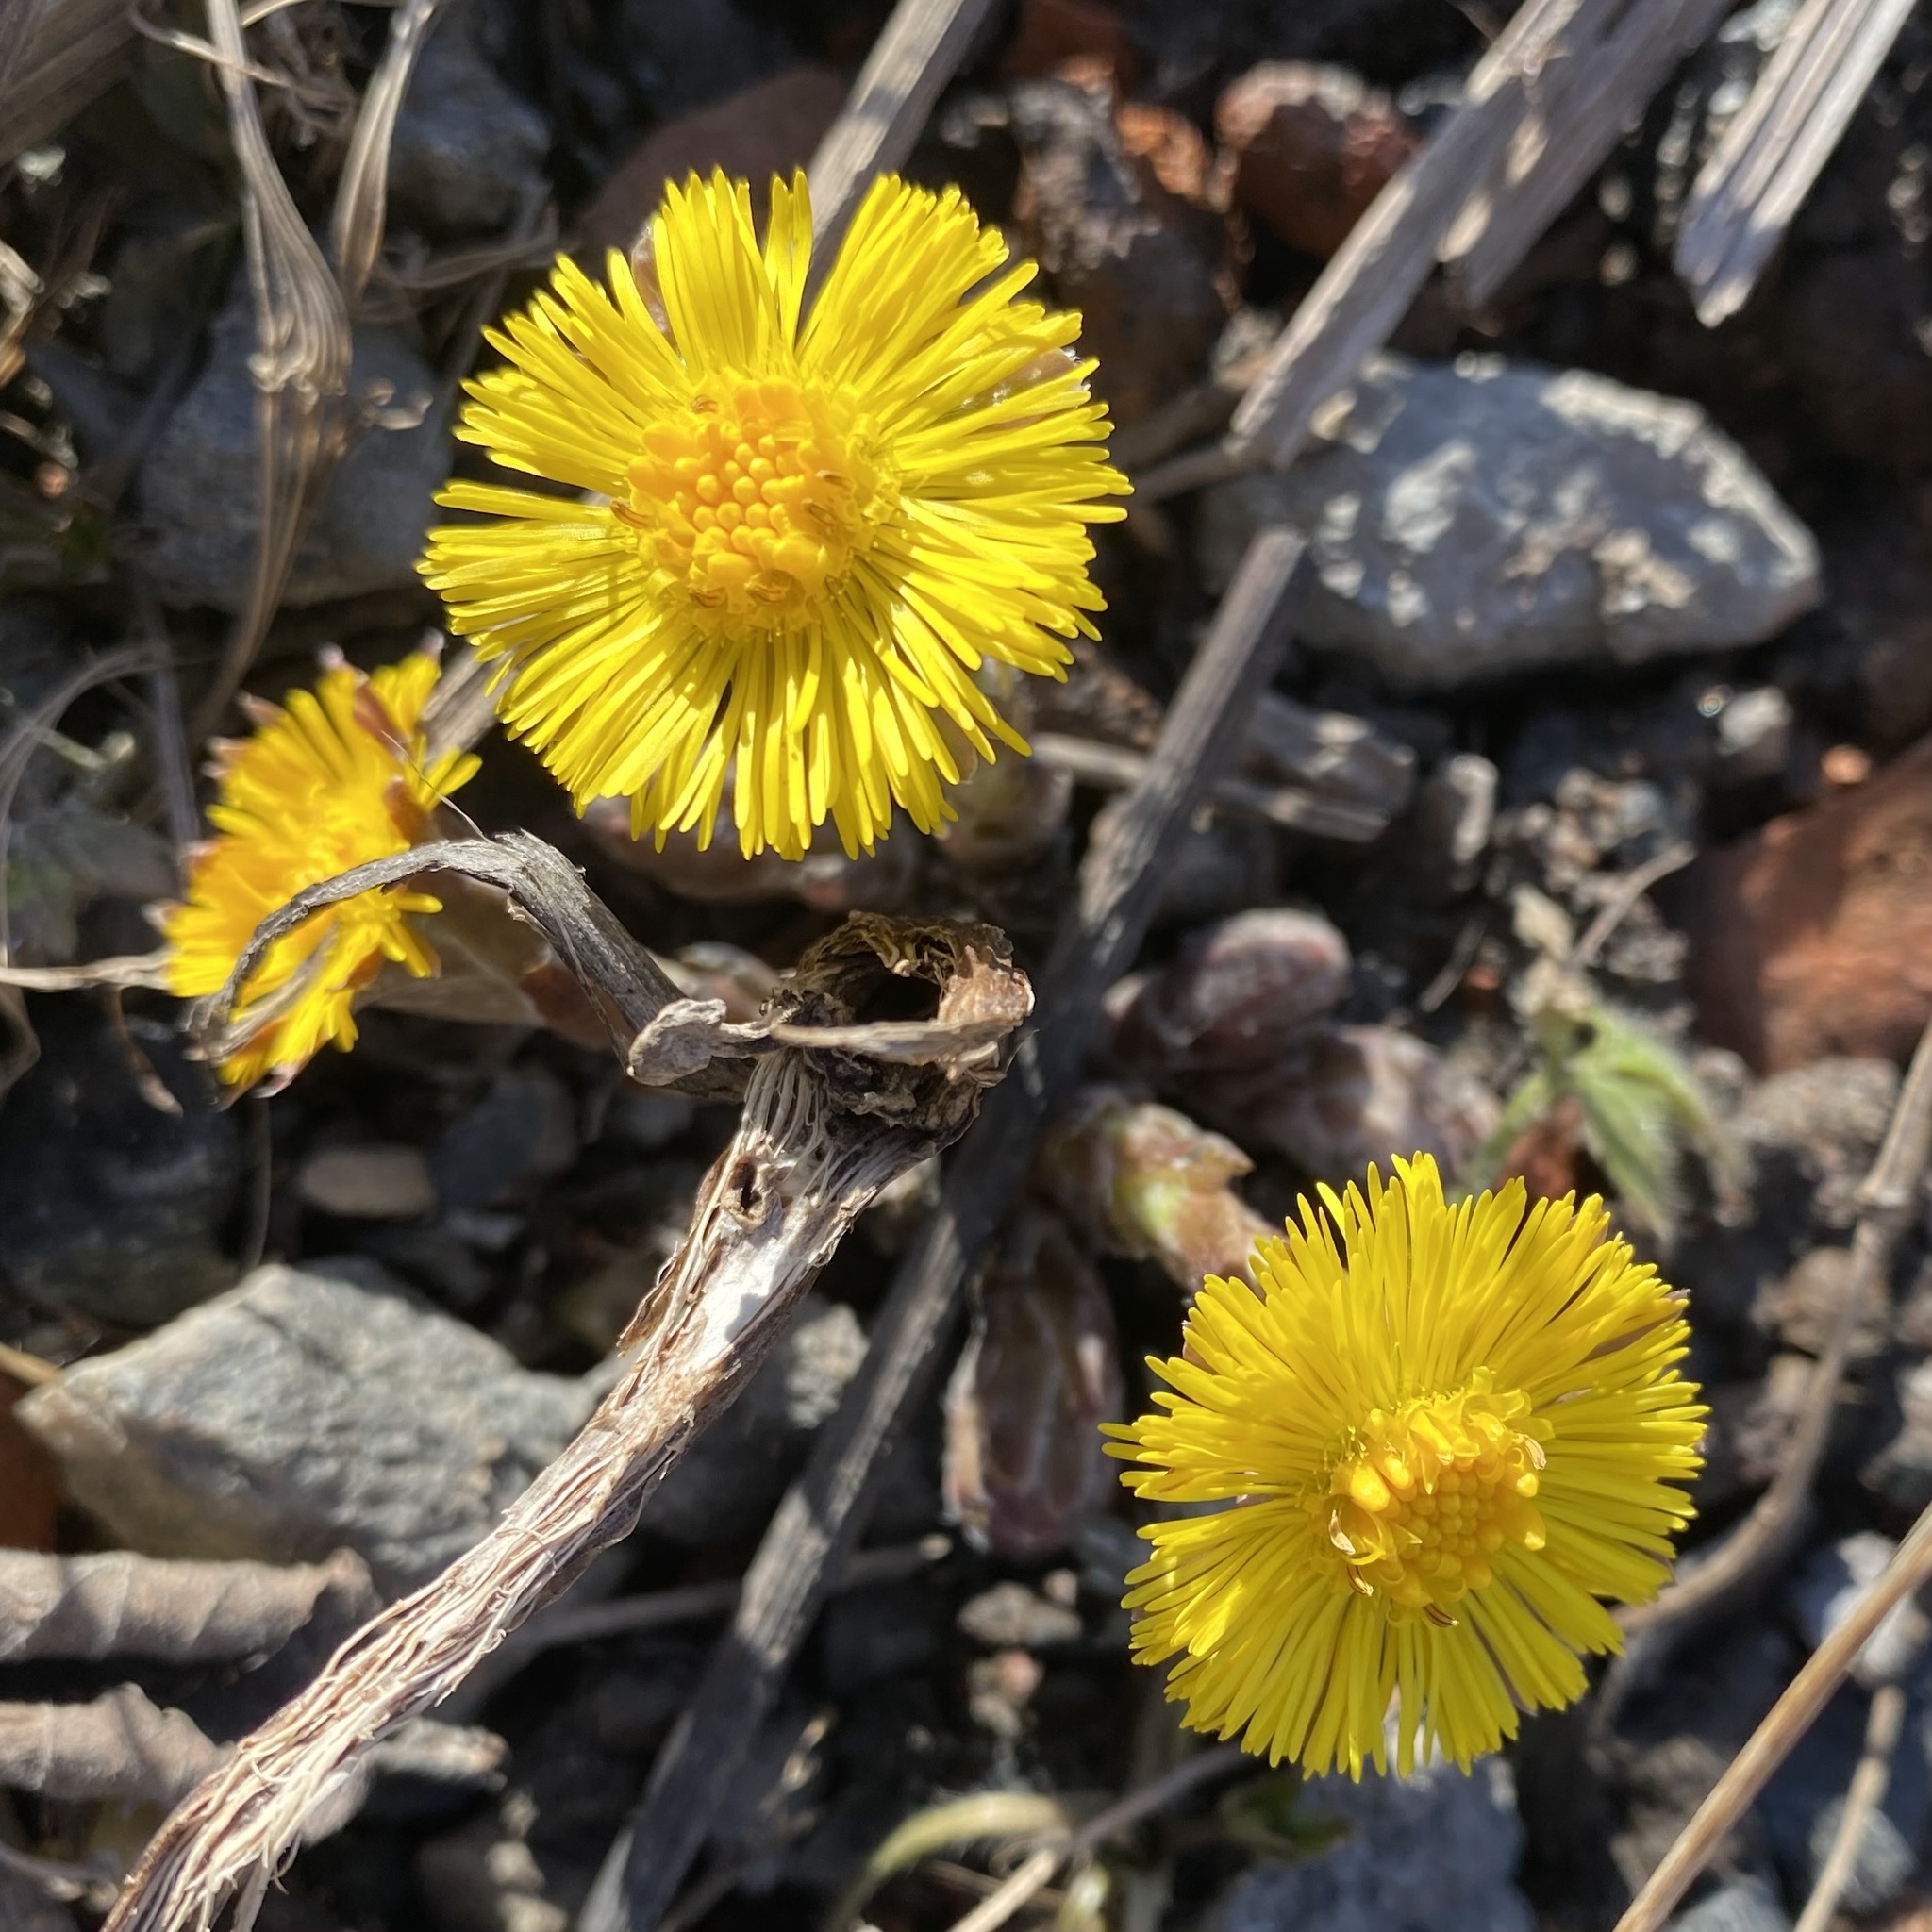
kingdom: Plantae
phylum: Tracheophyta
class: Magnoliopsida
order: Asterales
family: Asteraceae
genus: Tussilago
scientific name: Tussilago farfara
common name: Coltsfoot
